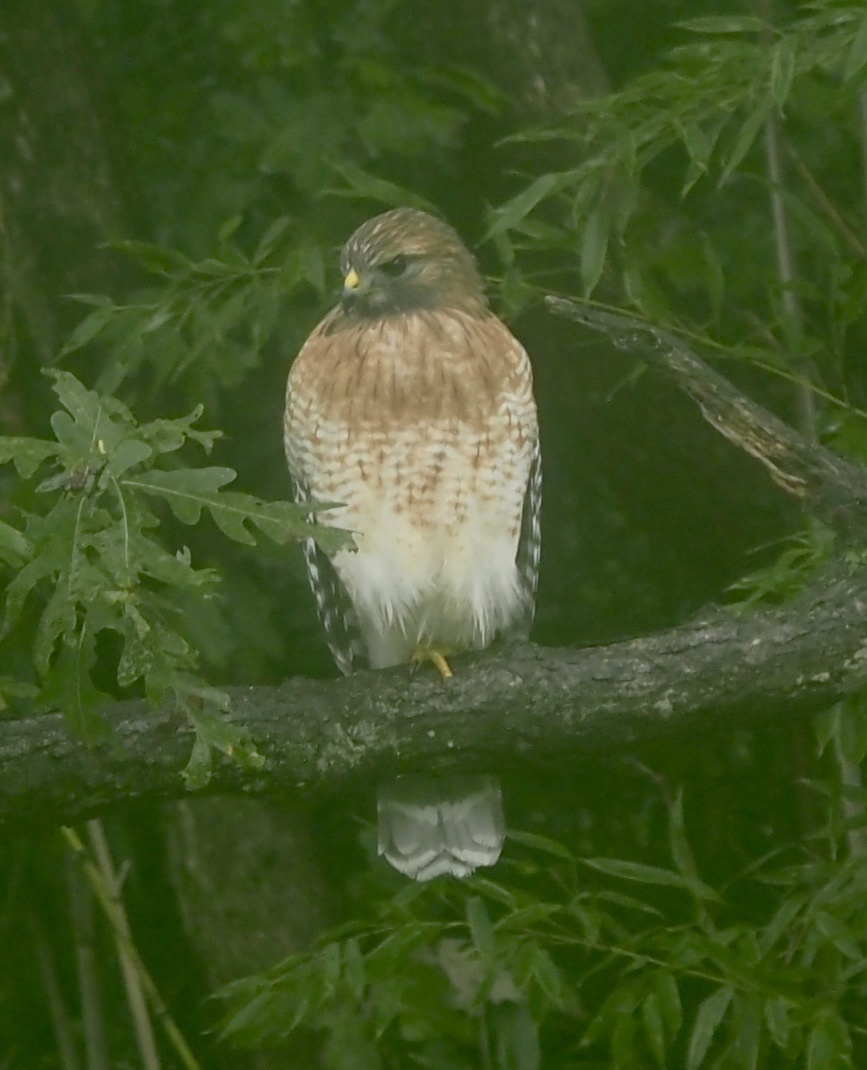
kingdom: Animalia
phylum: Chordata
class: Aves
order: Accipitriformes
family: Accipitridae
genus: Buteo
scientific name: Buteo lineatus
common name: Red-shouldered hawk
